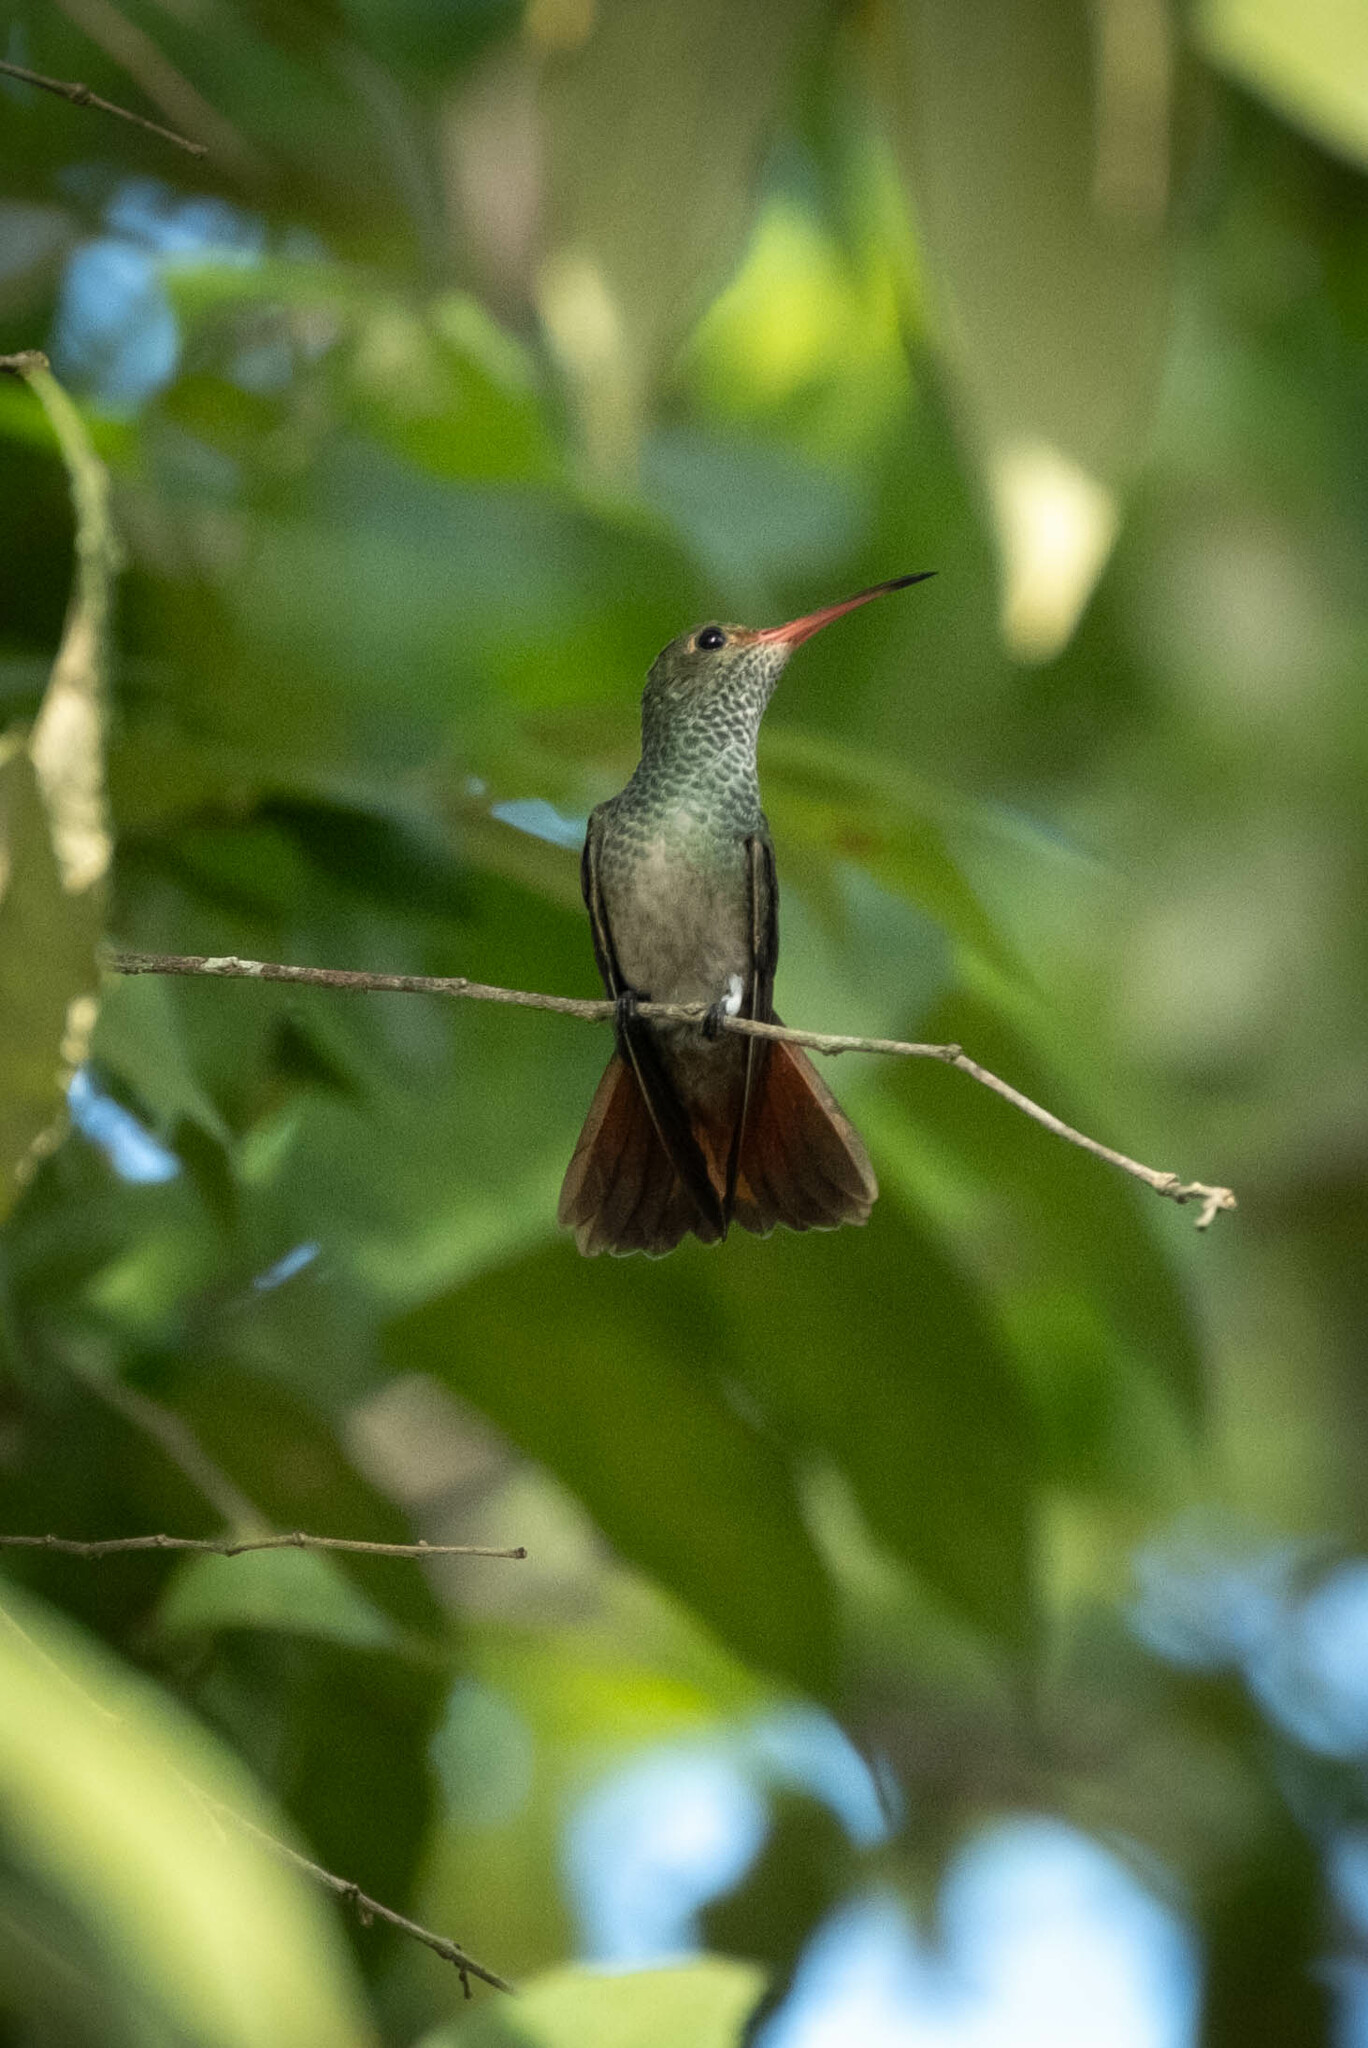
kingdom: Animalia
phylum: Chordata
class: Aves
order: Apodiformes
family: Trochilidae
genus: Amazilia
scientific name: Amazilia tzacatl
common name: Rufous-tailed hummingbird
